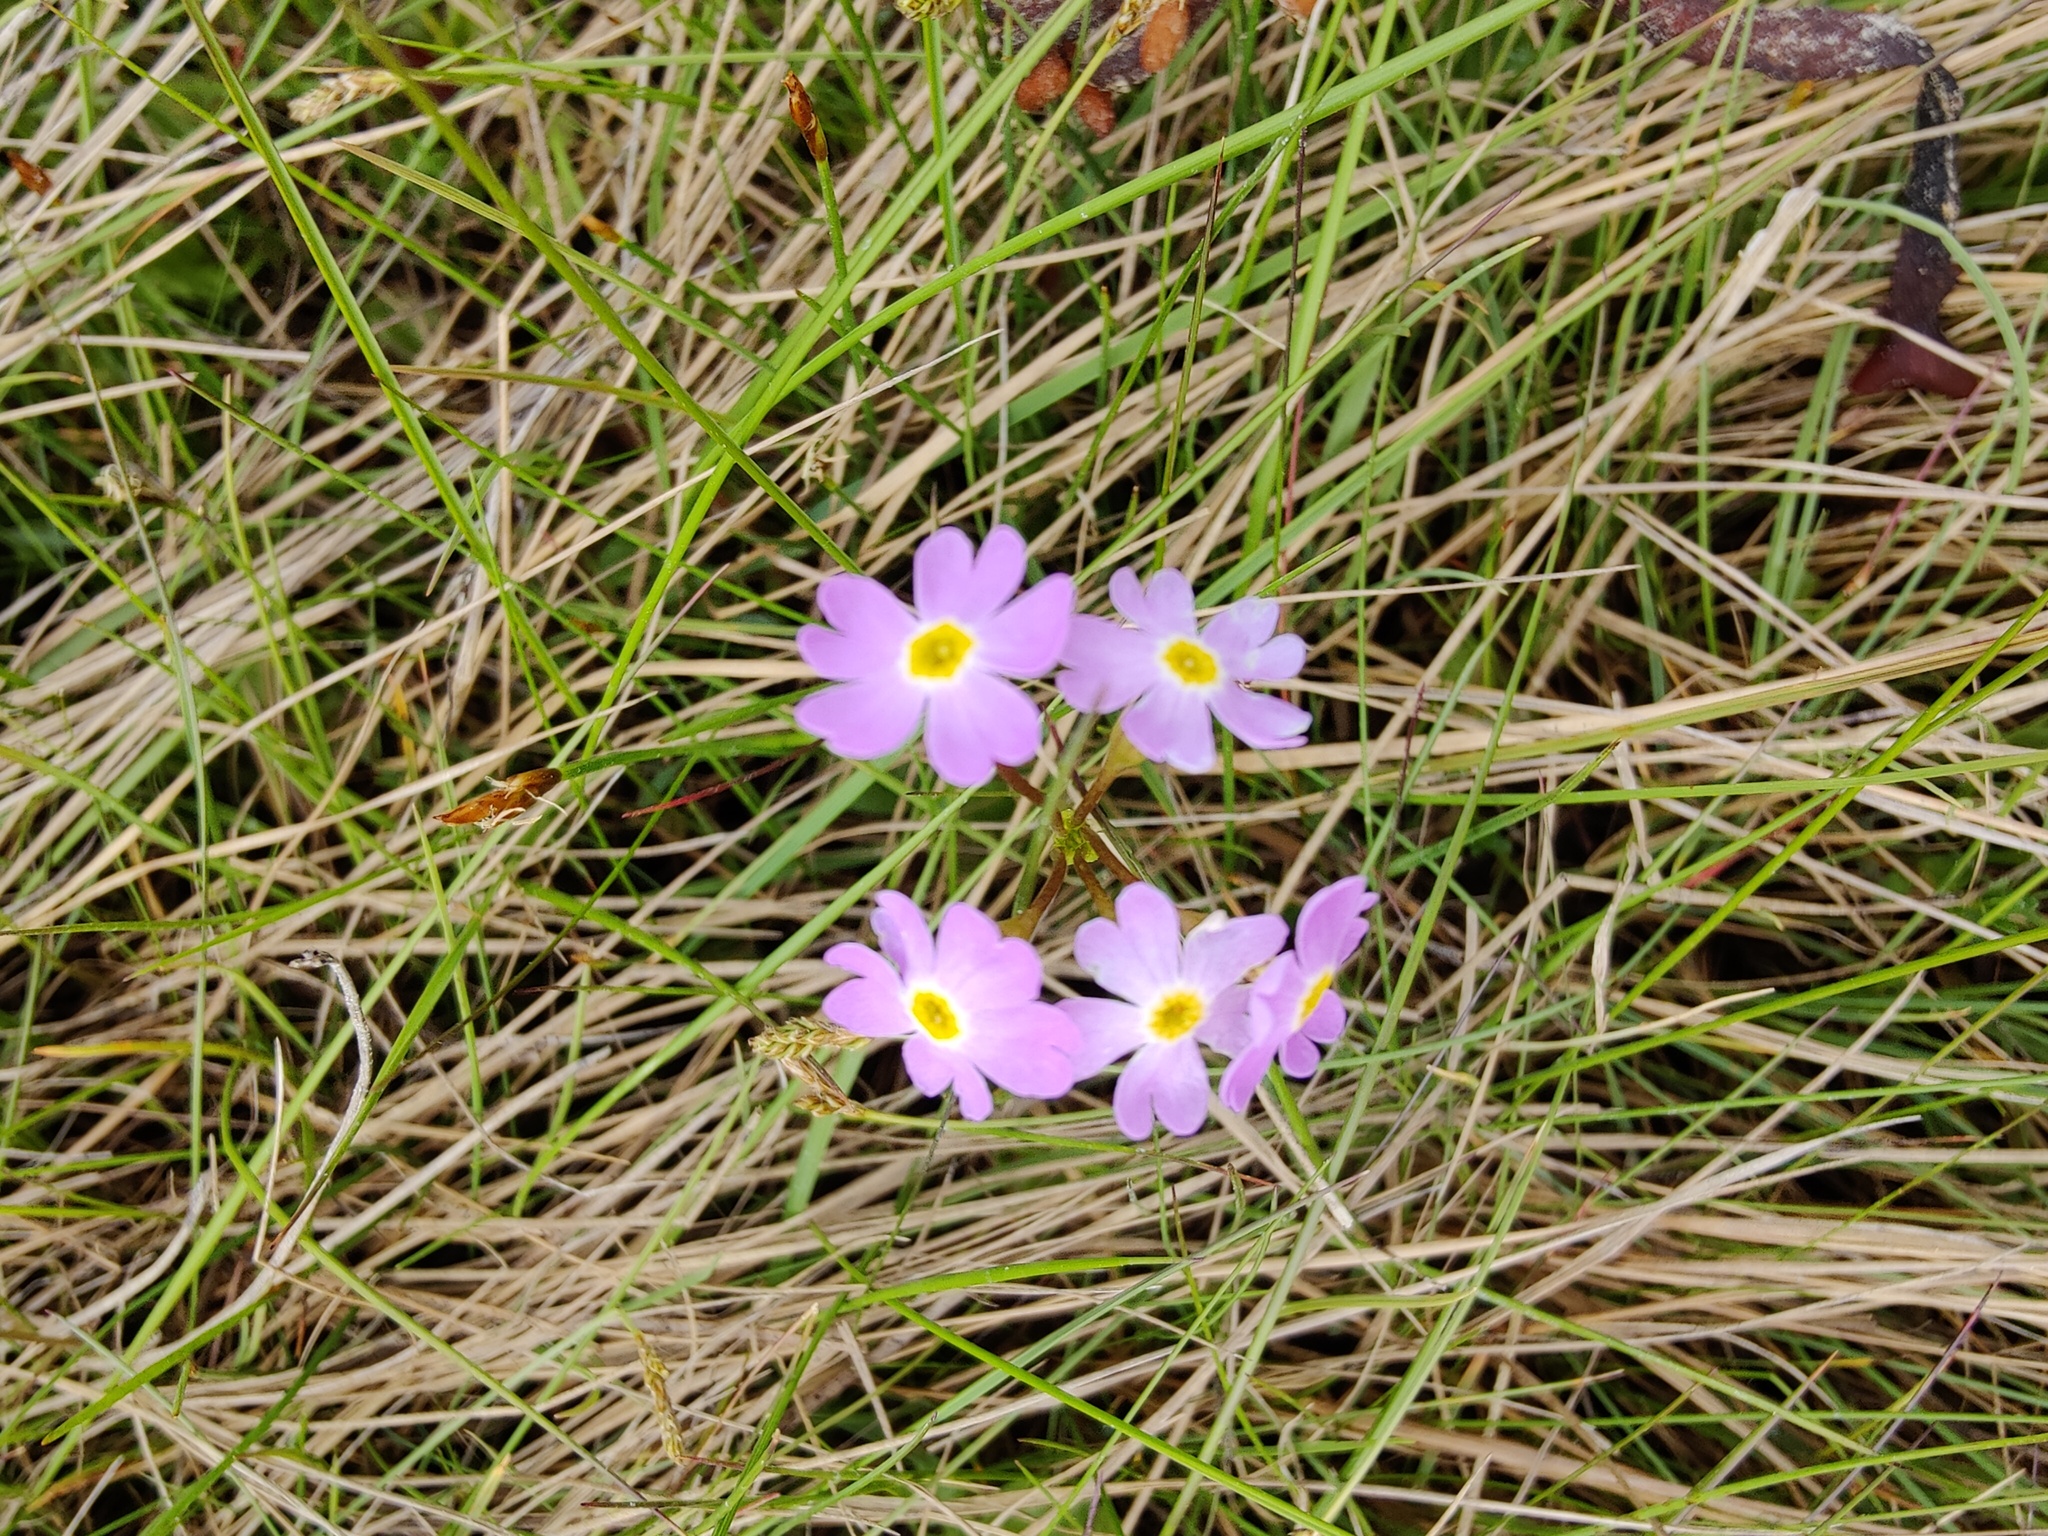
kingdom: Plantae
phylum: Tracheophyta
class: Magnoliopsida
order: Ericales
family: Primulaceae
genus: Primula
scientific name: Primula nutans
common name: Siberian primrose
